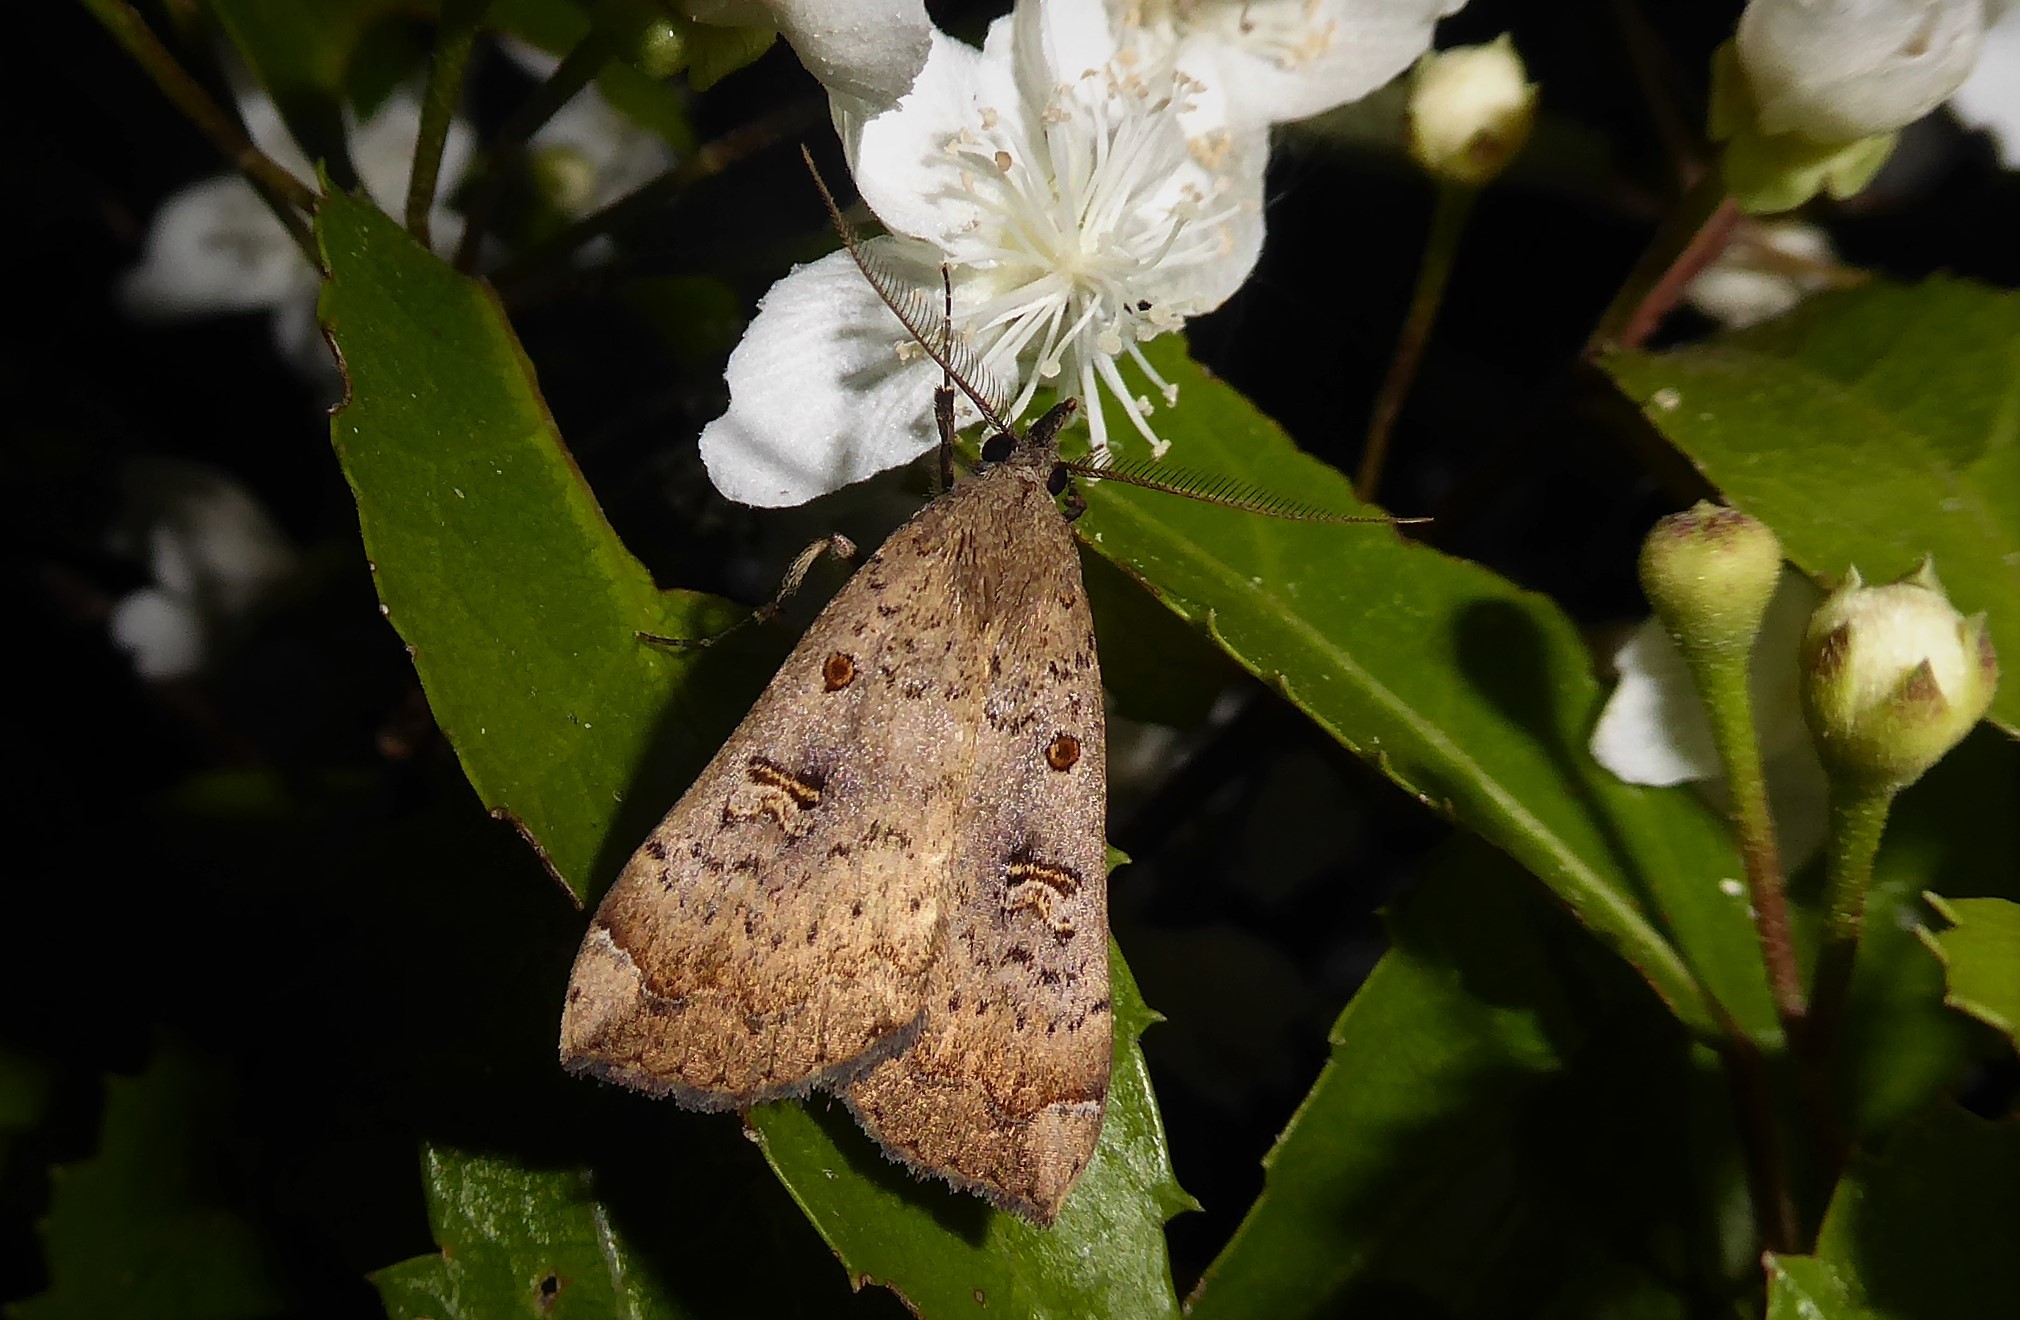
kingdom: Animalia
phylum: Arthropoda
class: Insecta
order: Lepidoptera
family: Erebidae
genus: Rhapsa
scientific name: Rhapsa scotosialis
